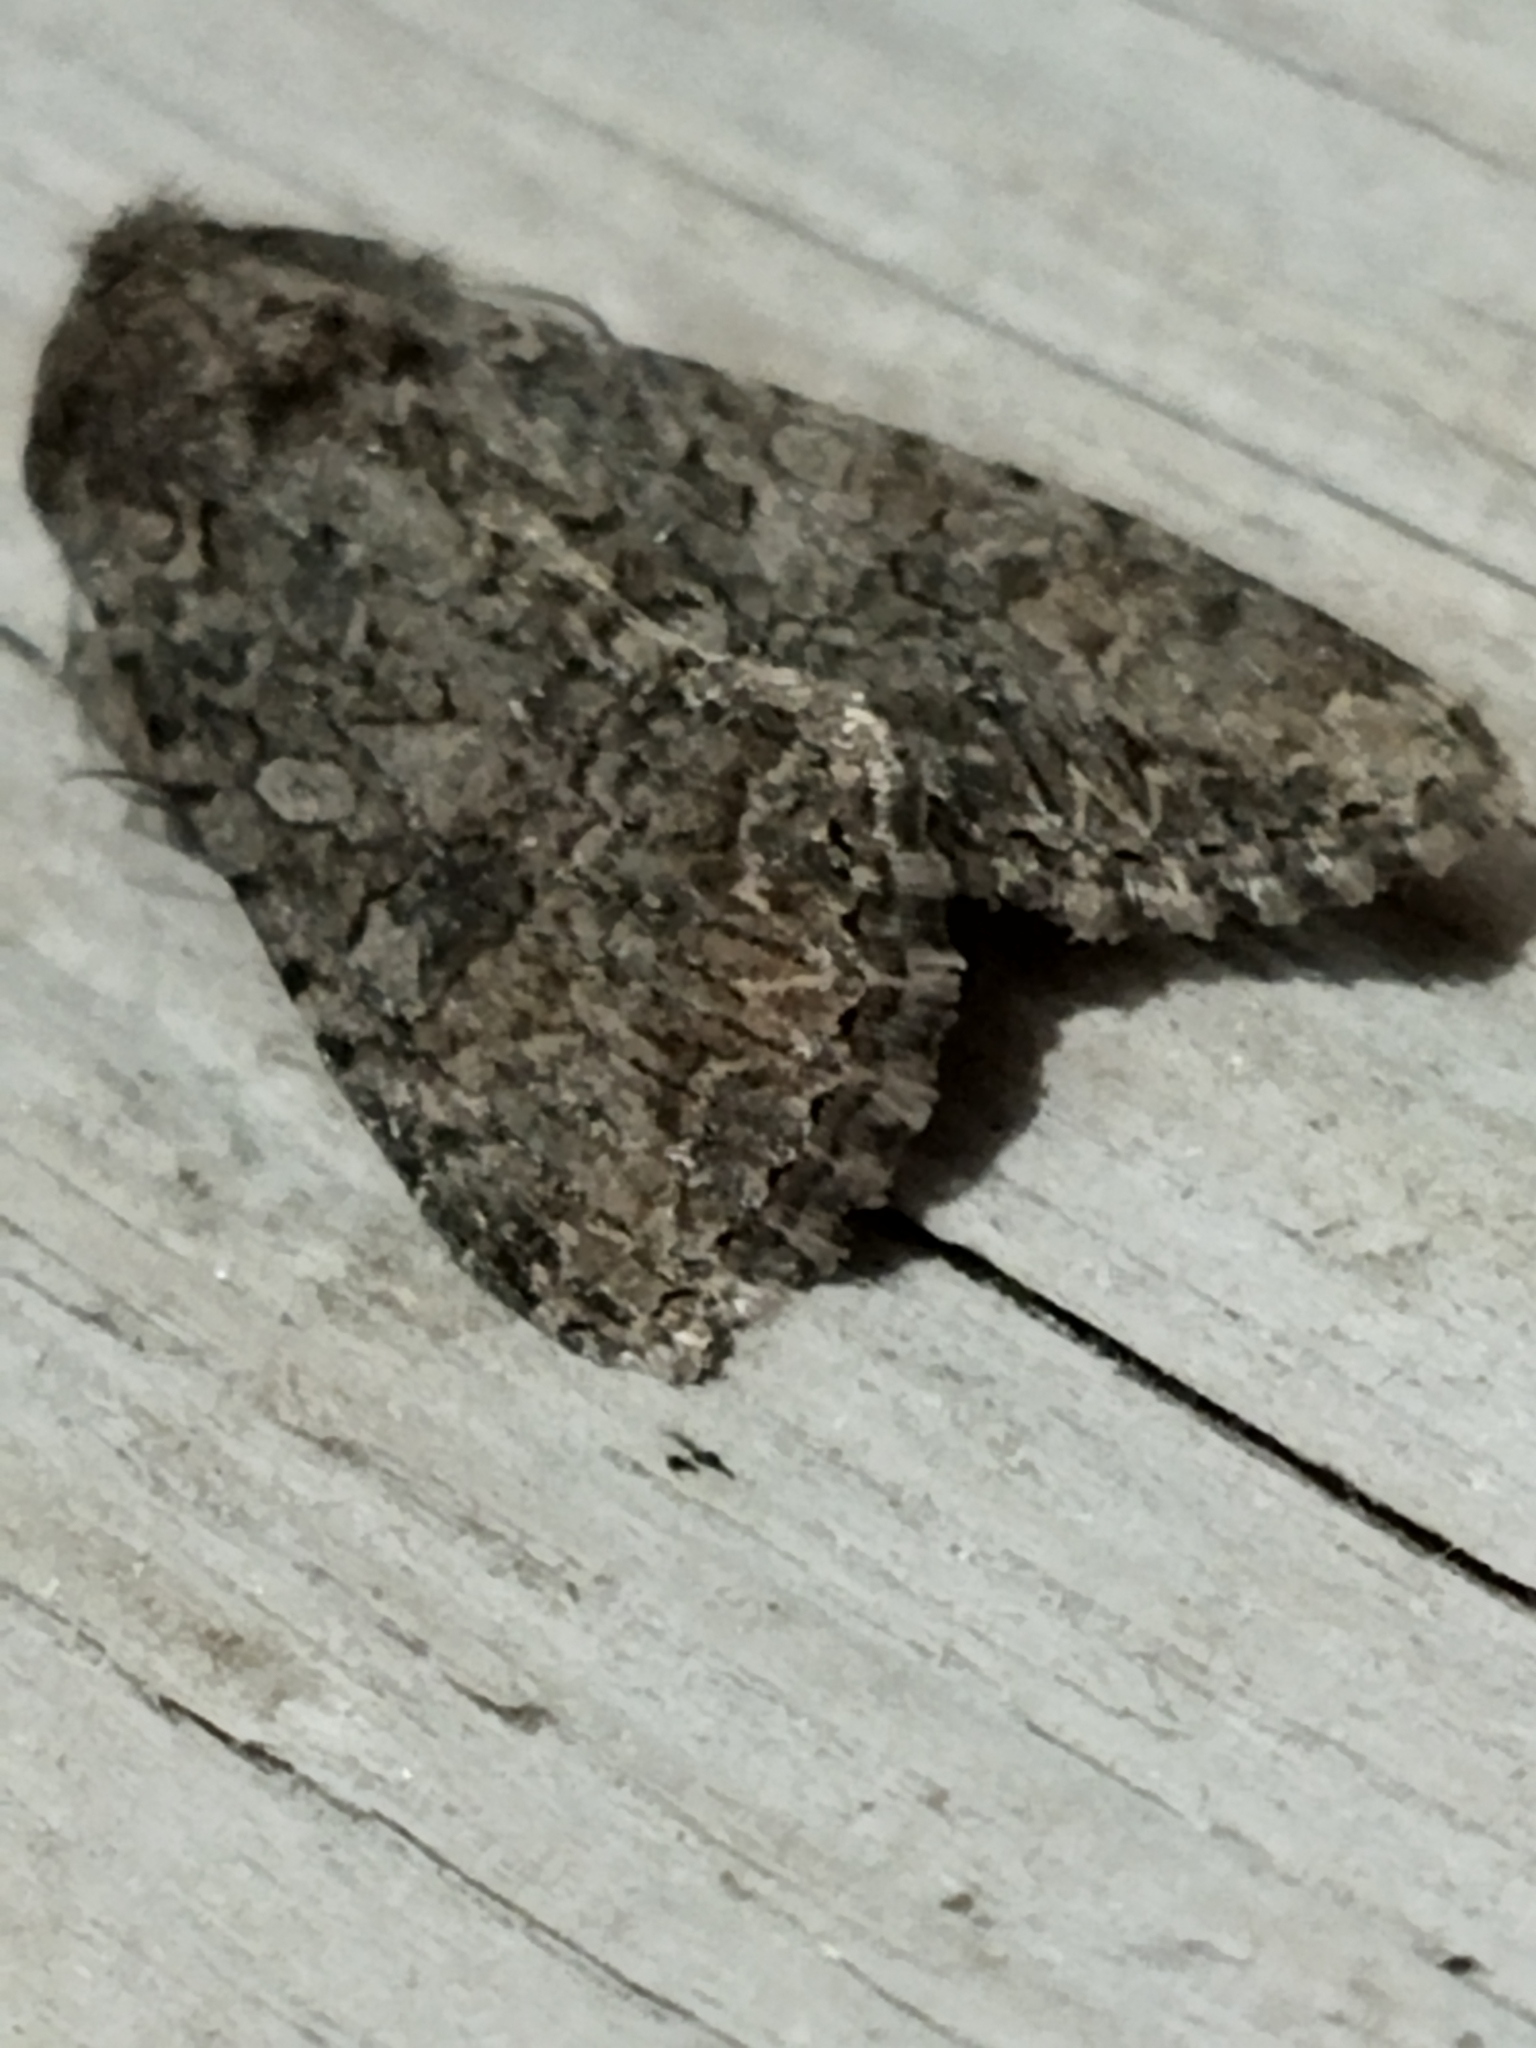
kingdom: Animalia
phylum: Arthropoda
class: Insecta
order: Lepidoptera
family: Noctuidae
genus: Anarta
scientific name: Anarta trifolii
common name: Clover cutworm moth
